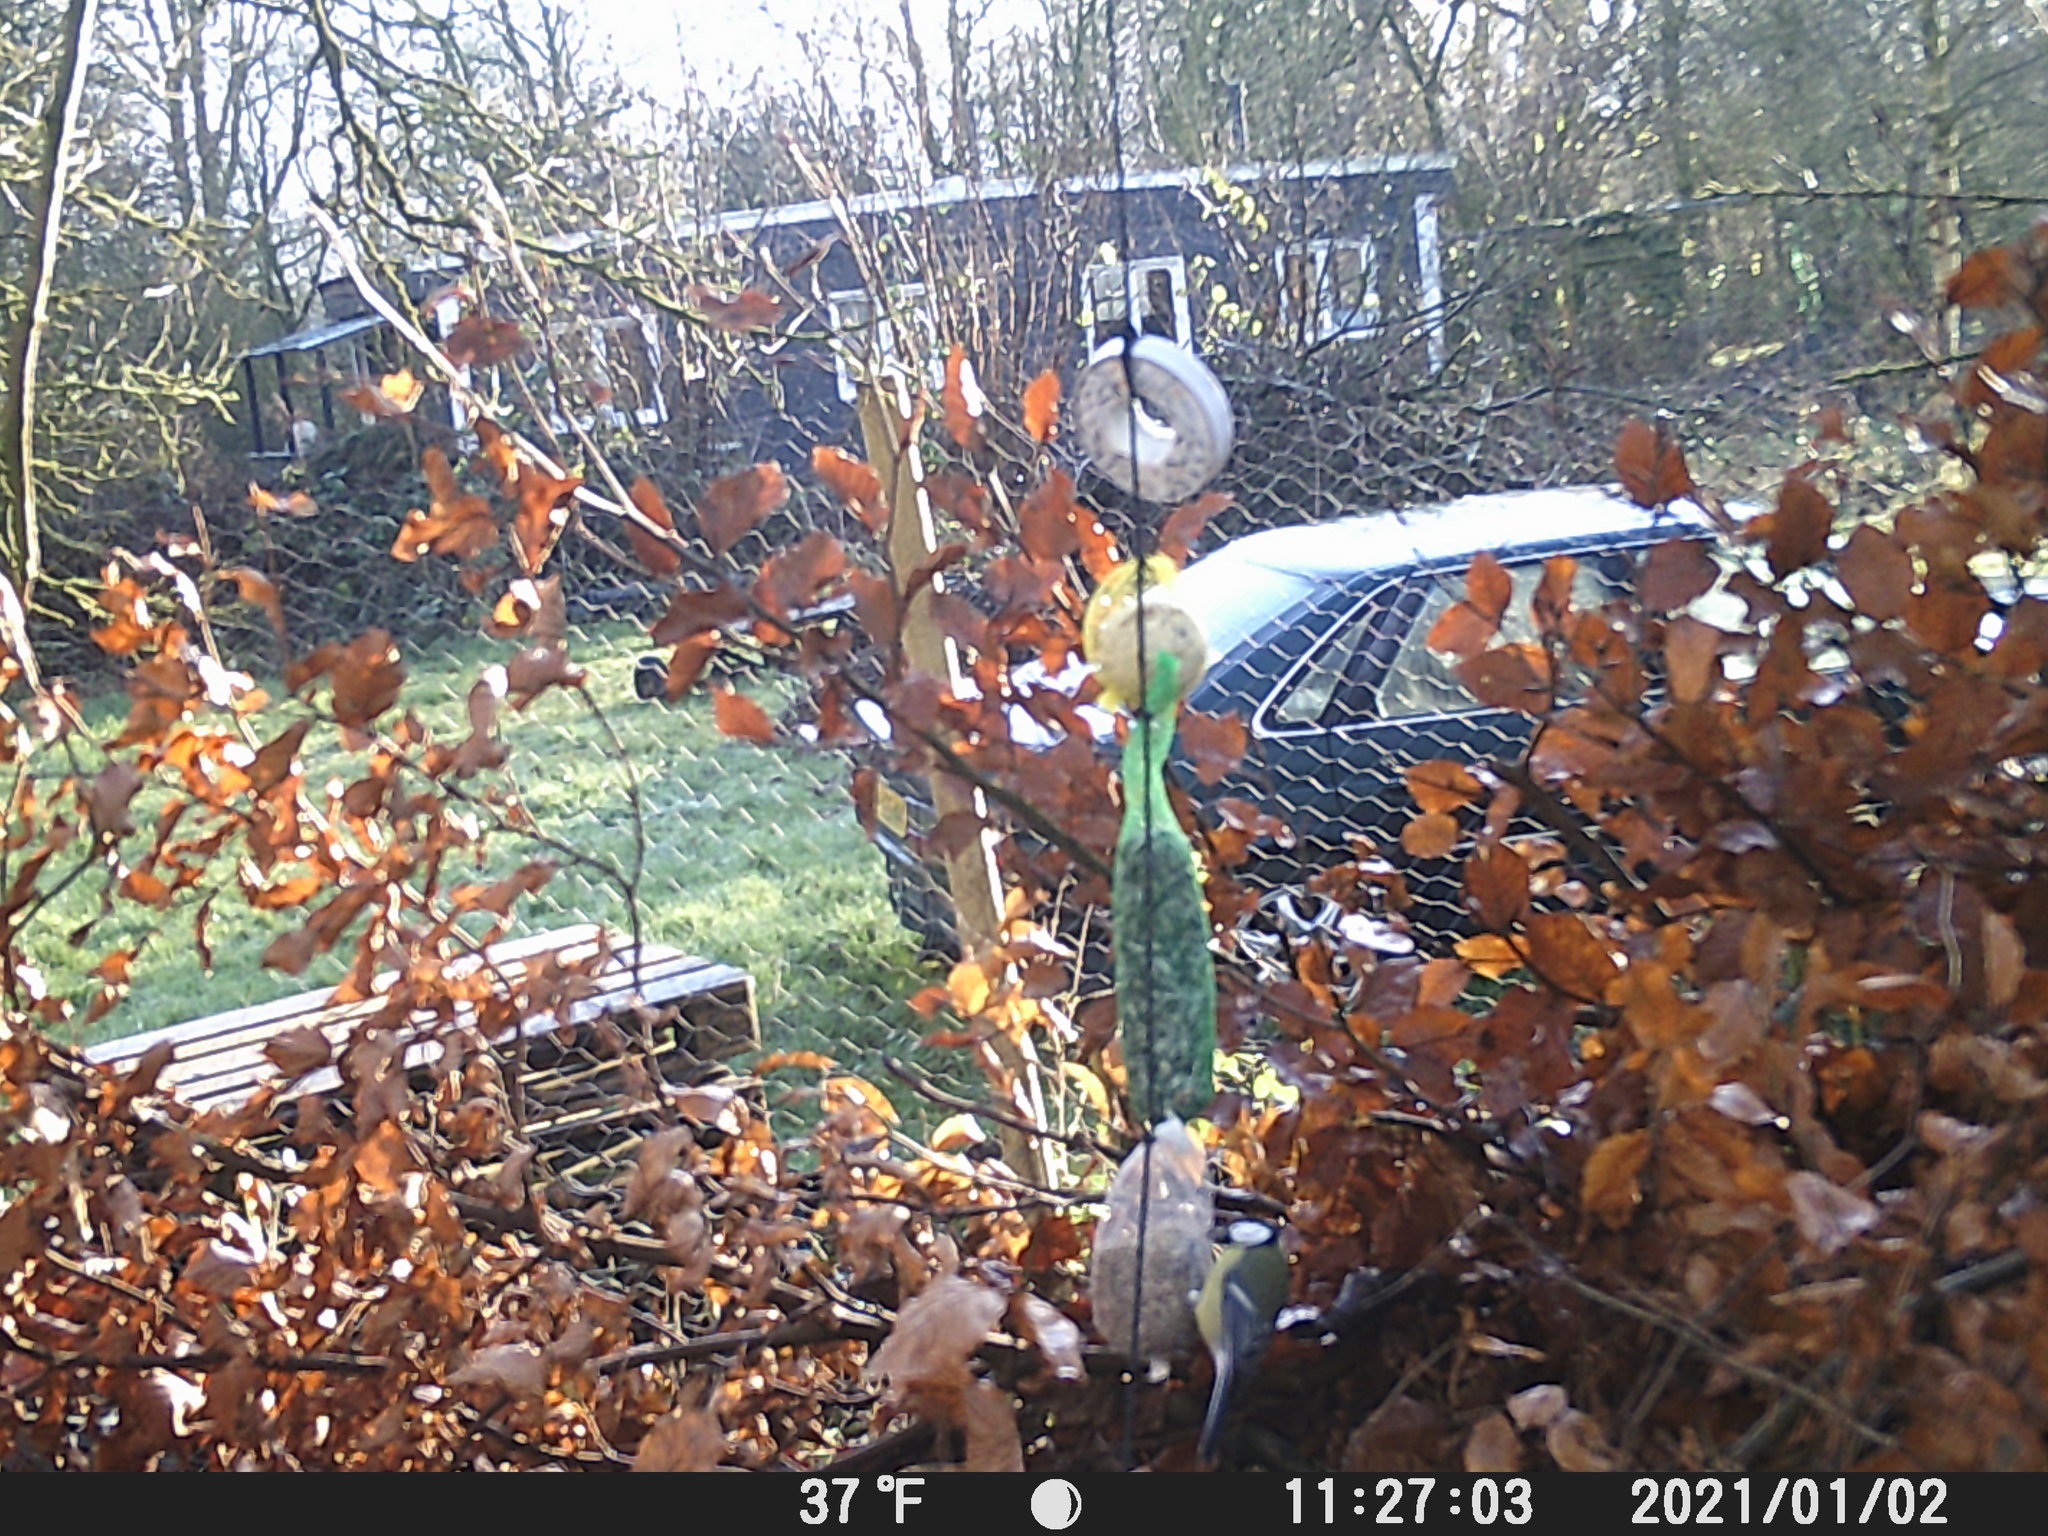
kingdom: Animalia
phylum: Chordata
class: Aves
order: Passeriformes
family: Paridae
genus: Parus
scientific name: Parus major
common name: Great tit
